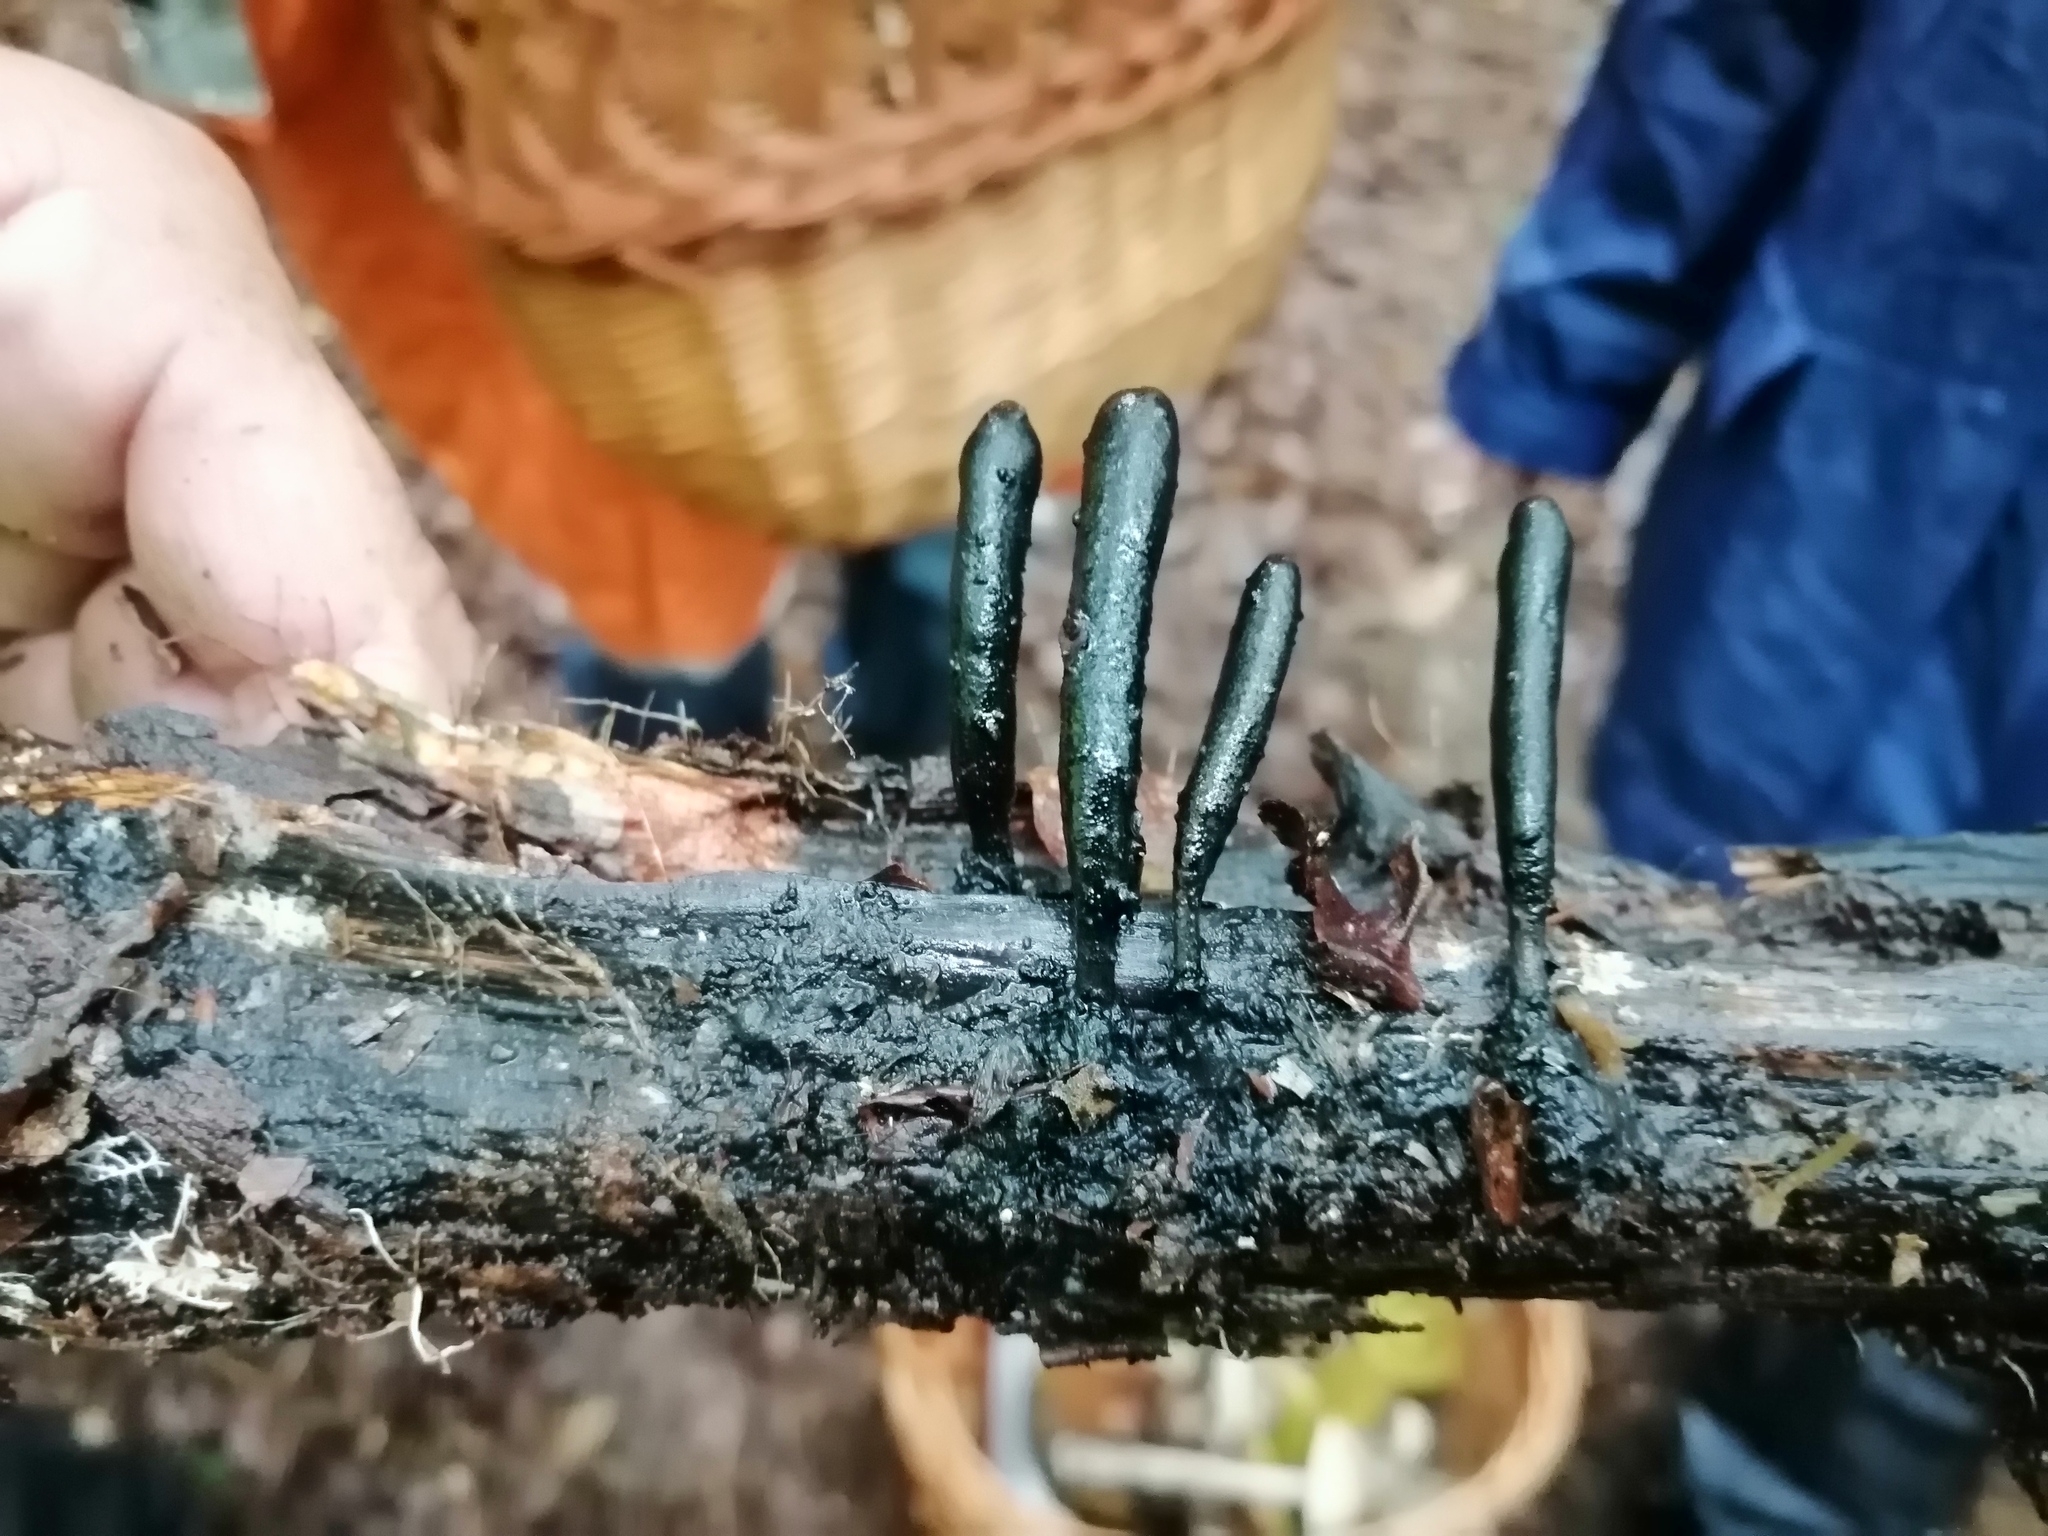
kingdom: Fungi
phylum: Ascomycota
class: Sordariomycetes
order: Xylariales
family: Xylariaceae
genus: Xylaria
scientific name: Xylaria longipes
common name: Dead moll's fingers
